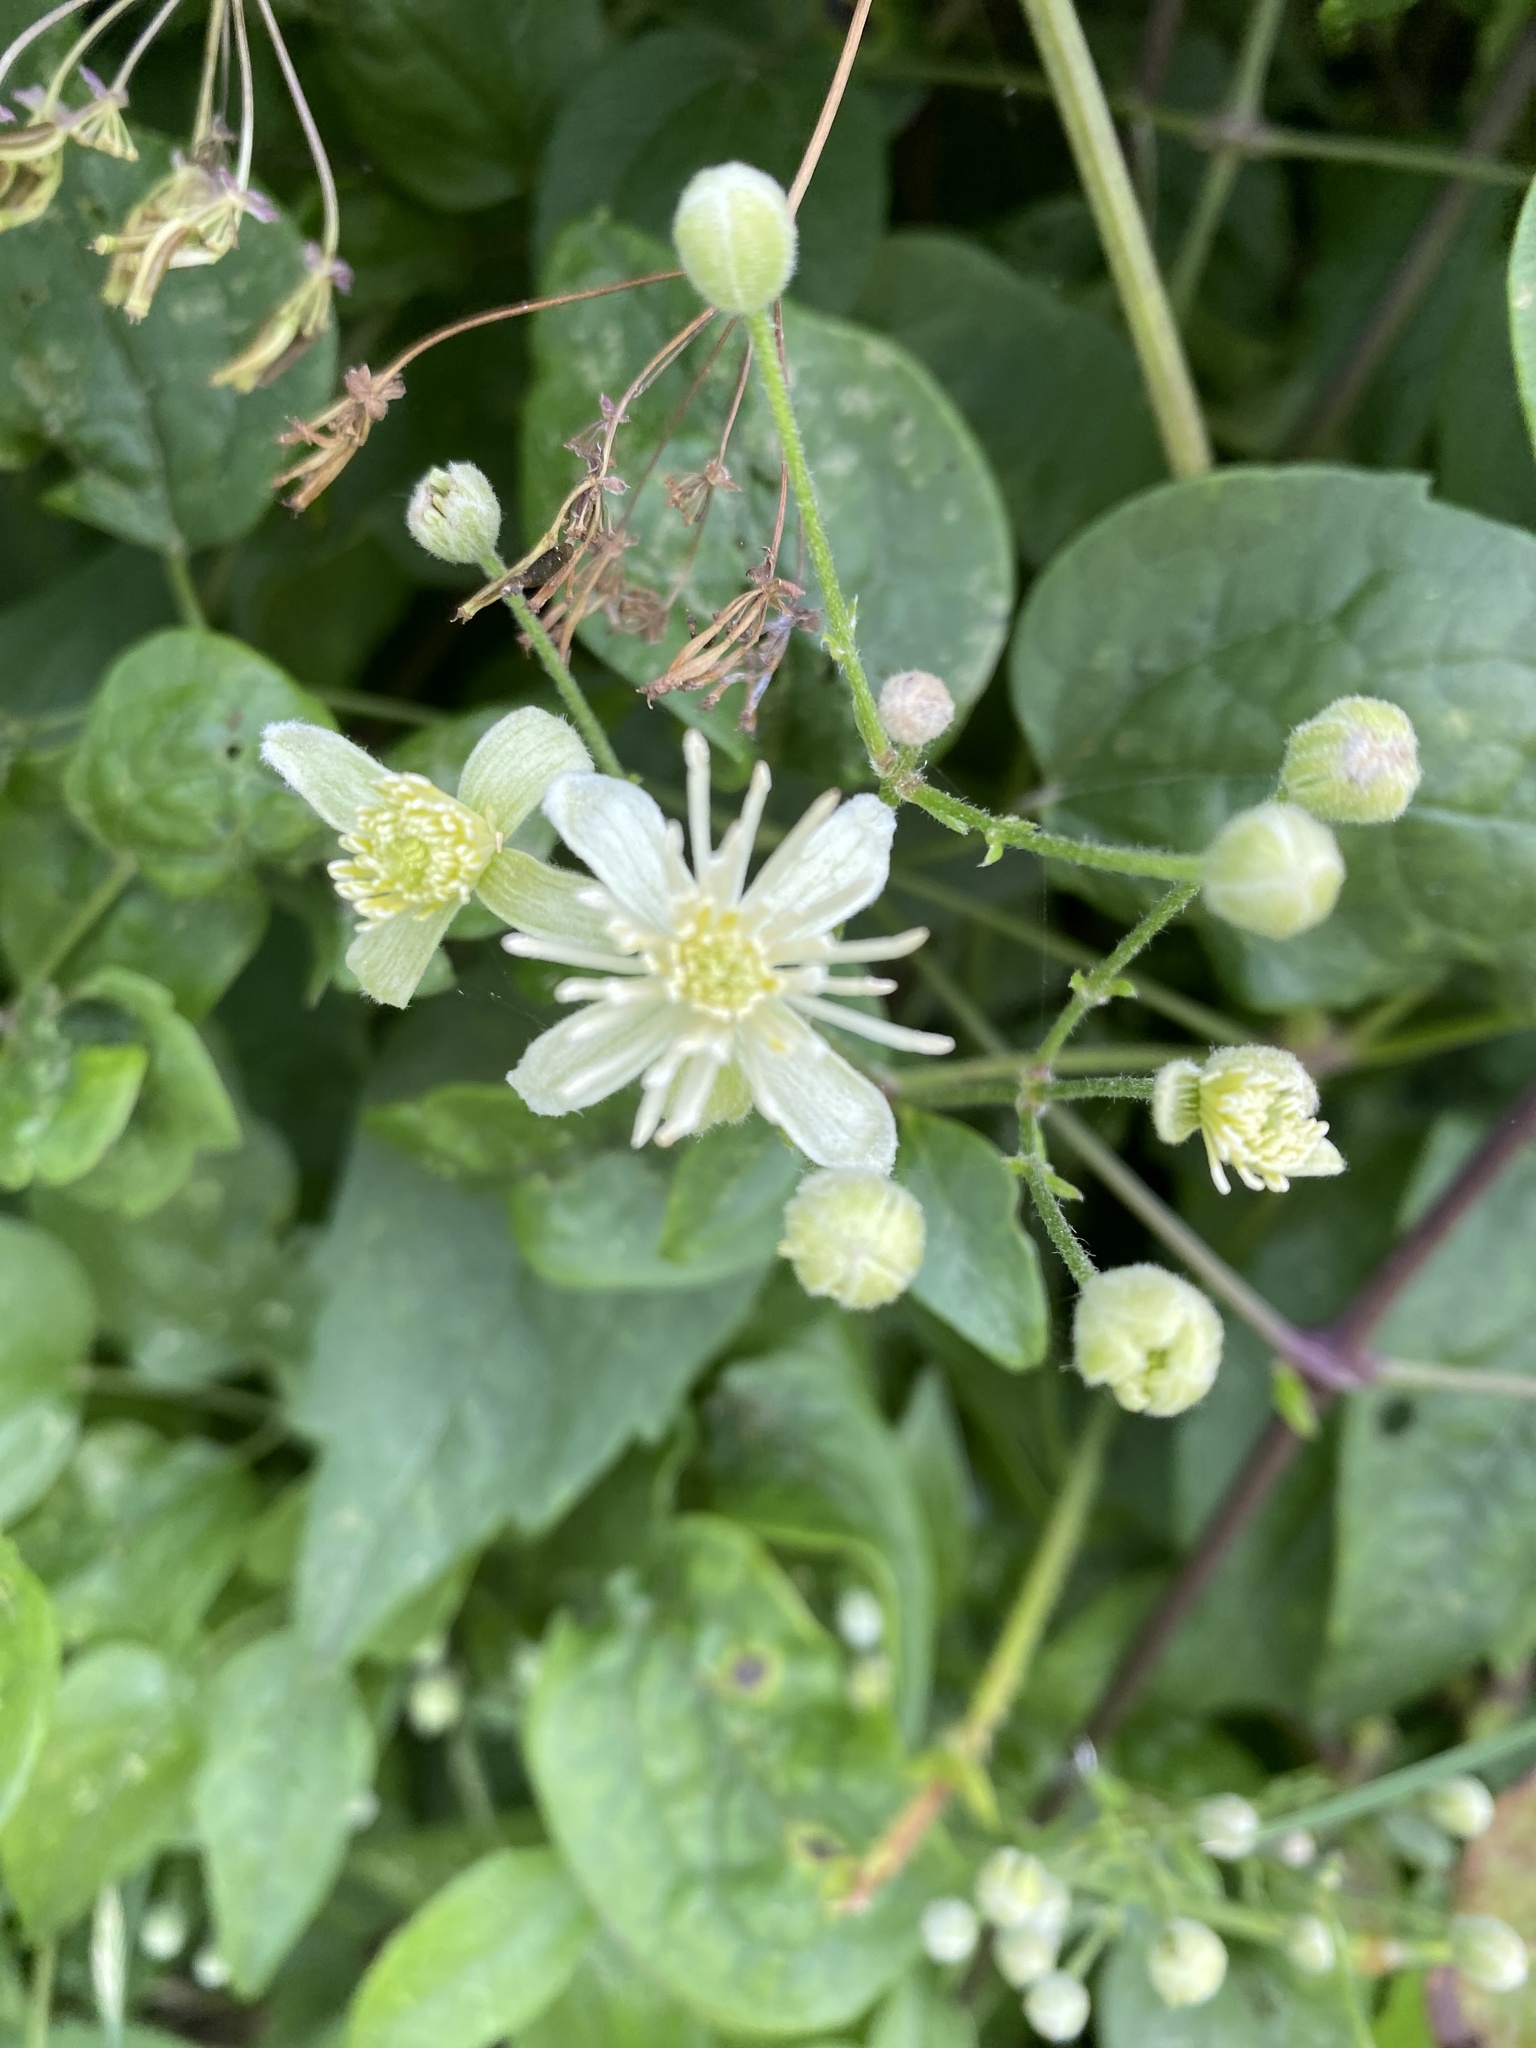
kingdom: Plantae
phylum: Tracheophyta
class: Magnoliopsida
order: Ranunculales
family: Ranunculaceae
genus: Clematis
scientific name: Clematis vitalba
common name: Evergreen clematis
